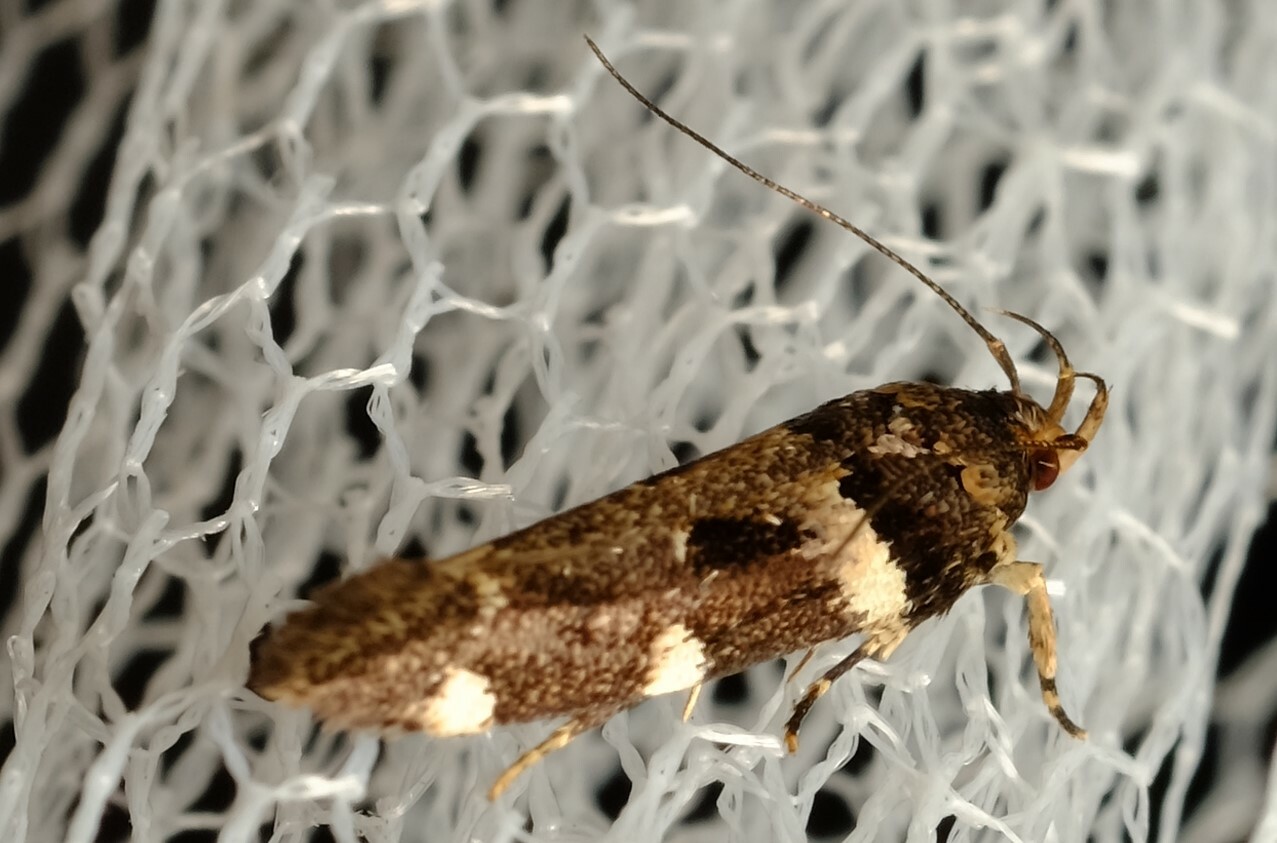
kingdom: Animalia
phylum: Arthropoda
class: Insecta
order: Lepidoptera
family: Cosmopterigidae
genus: Macrobathra
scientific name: Macrobathra ceraunobola
